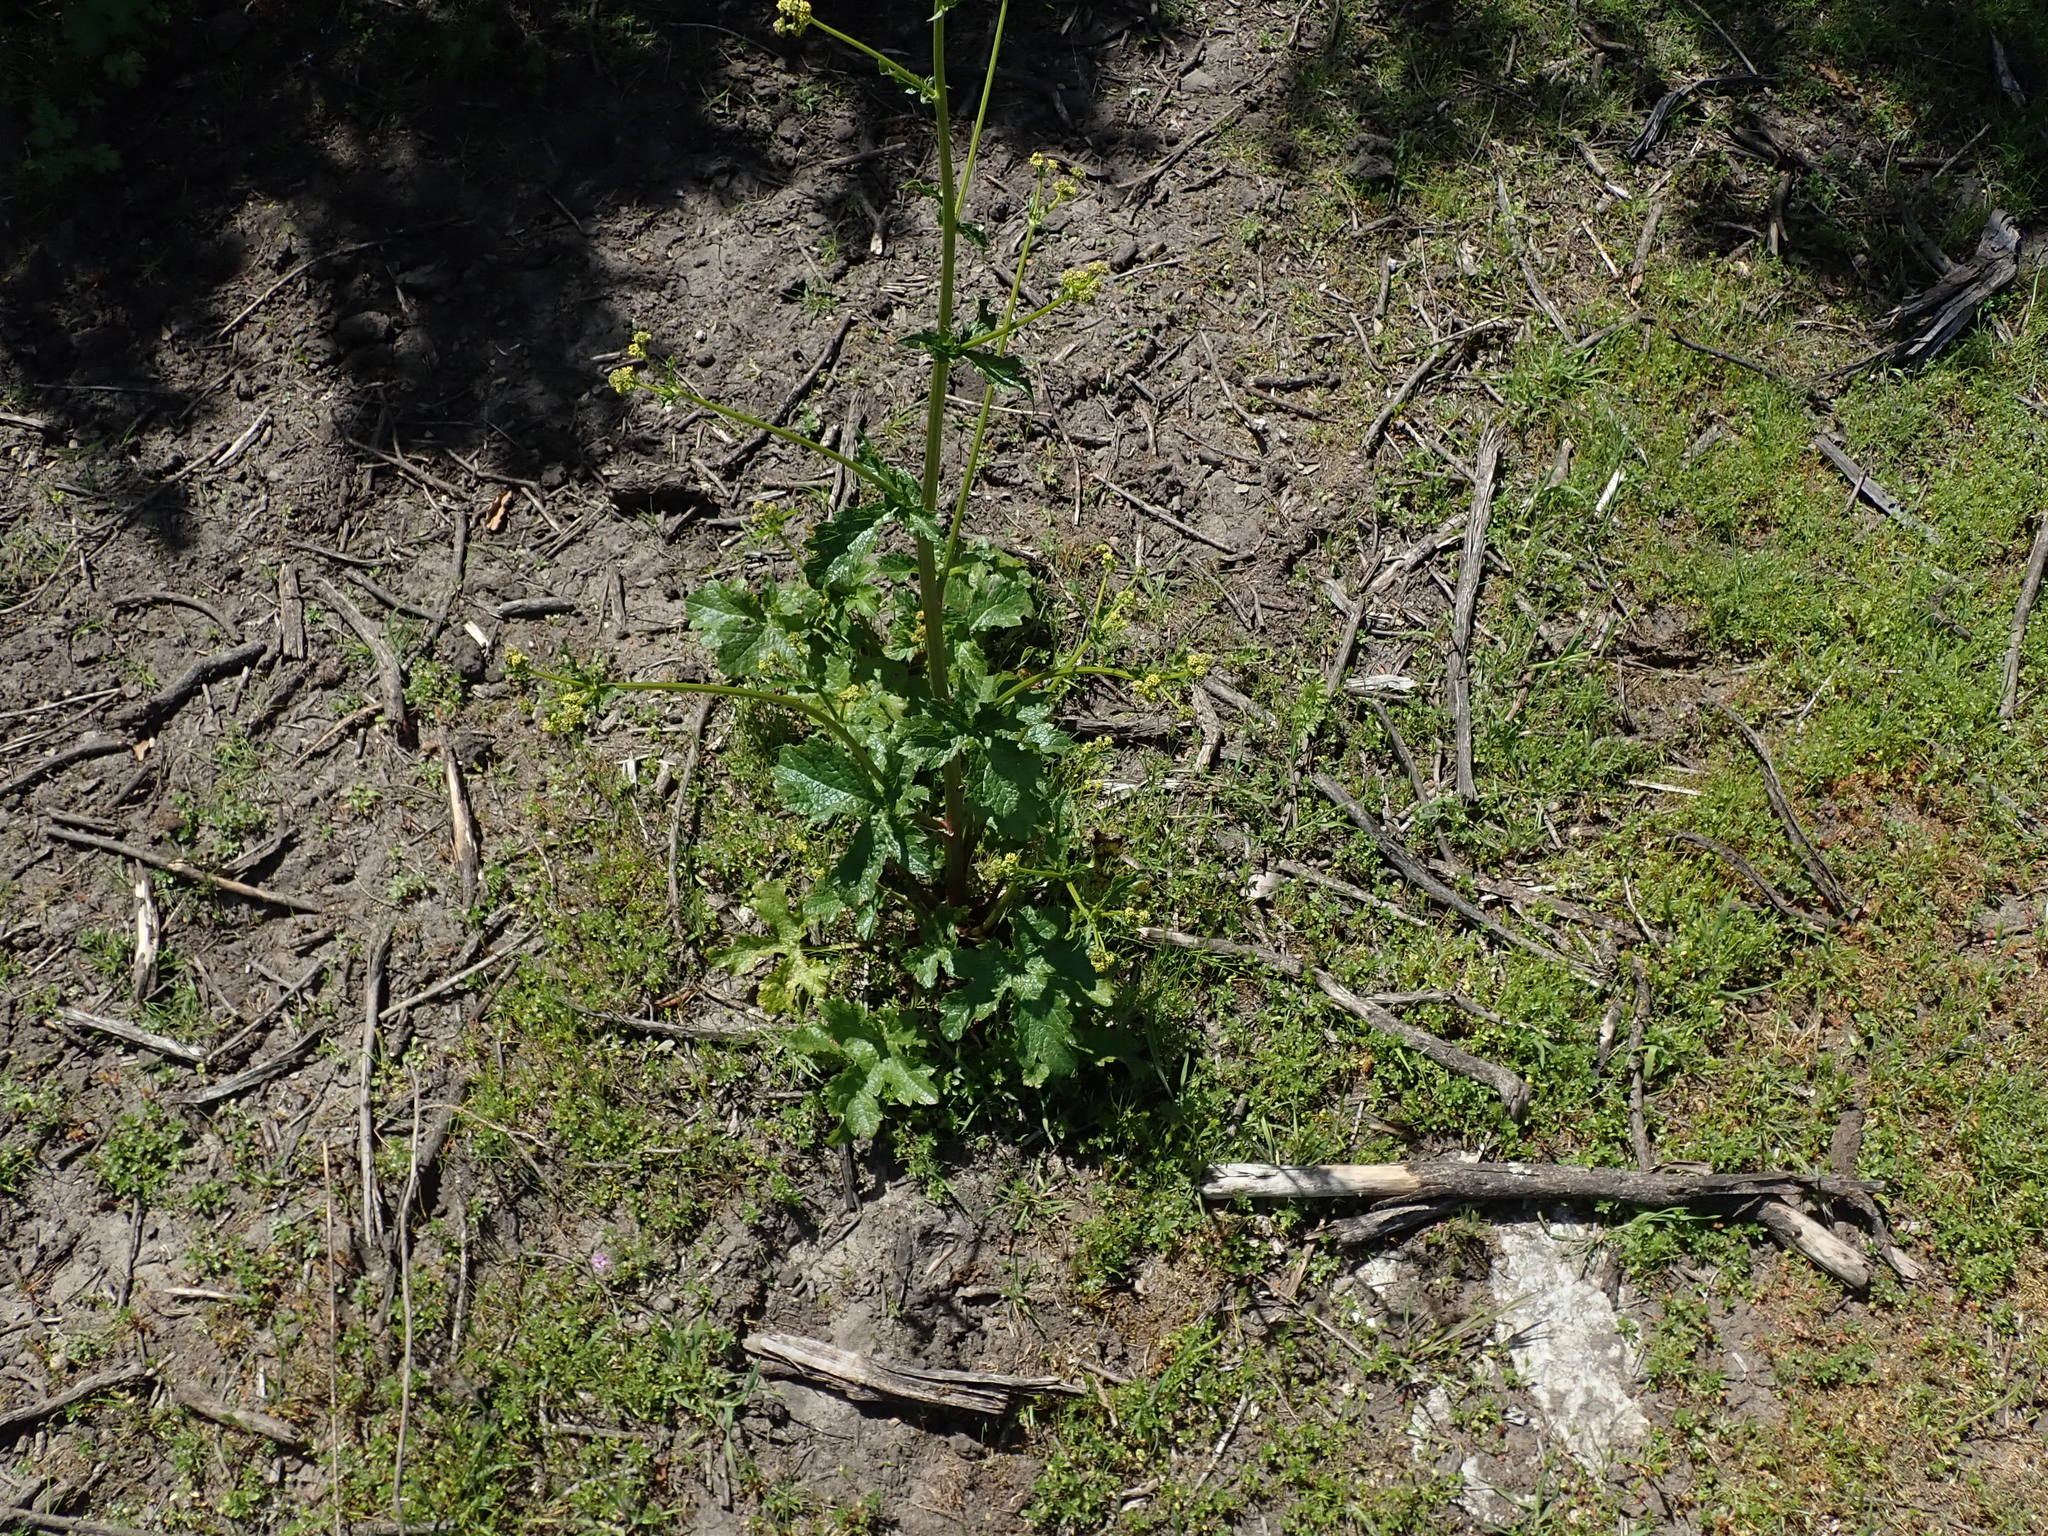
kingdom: Plantae
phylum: Tracheophyta
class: Magnoliopsida
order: Apiales
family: Apiaceae
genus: Sanicula
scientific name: Sanicula crassicaulis
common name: Western snakeroot
